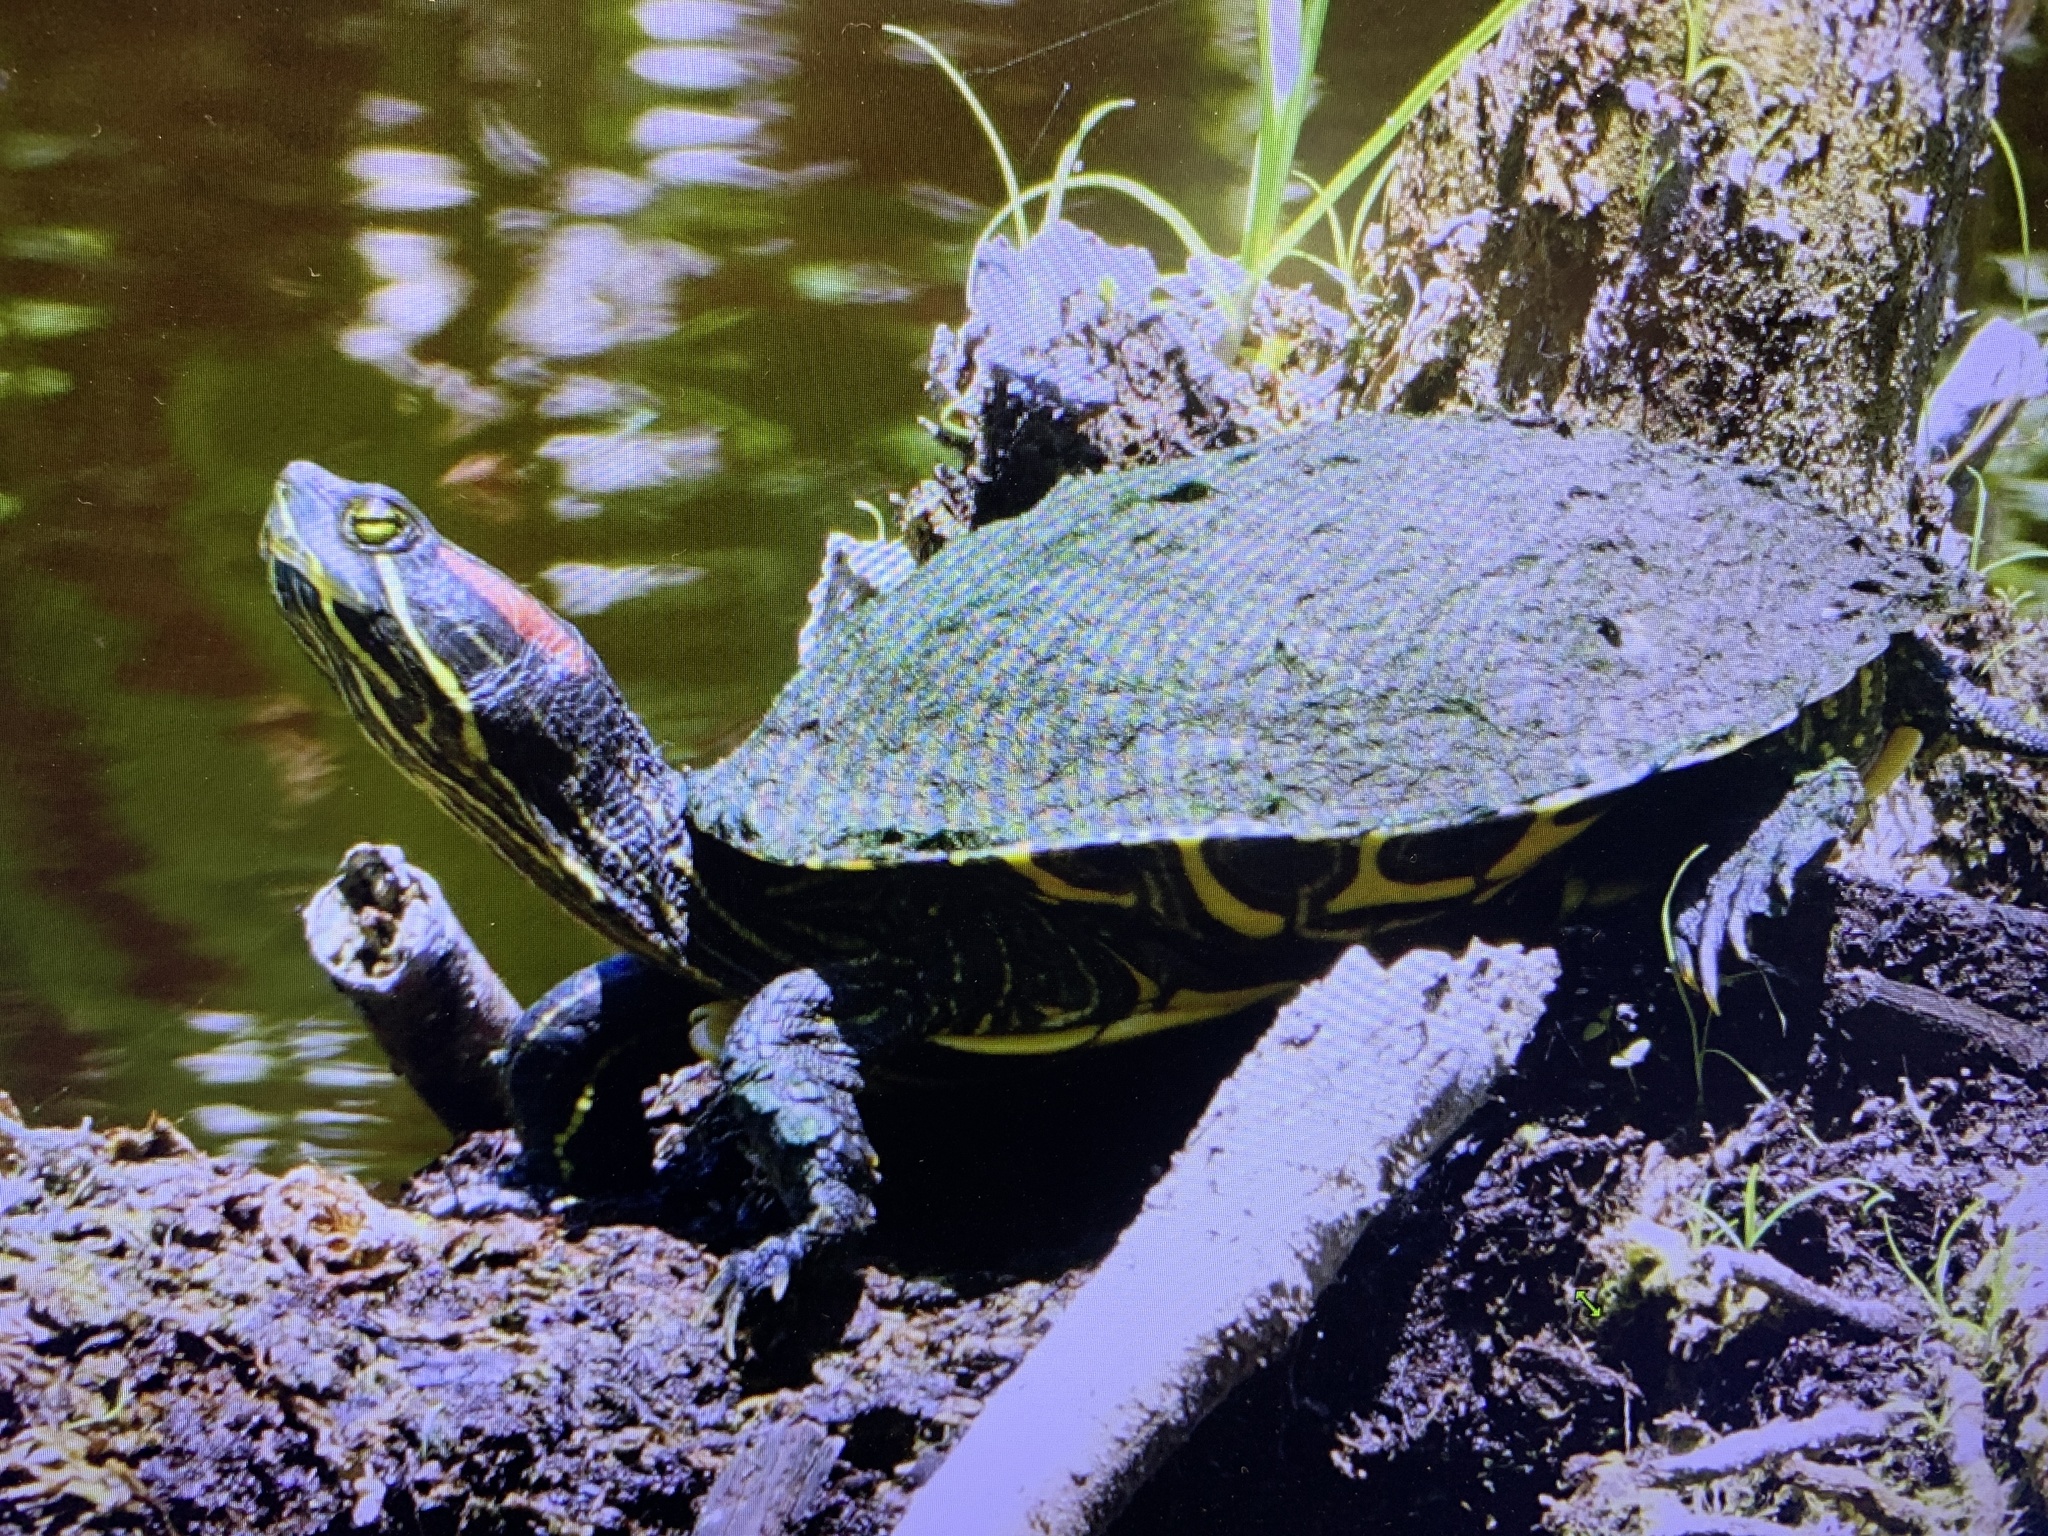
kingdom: Animalia
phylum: Chordata
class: Testudines
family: Emydidae
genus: Trachemys
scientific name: Trachemys scripta
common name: Slider
